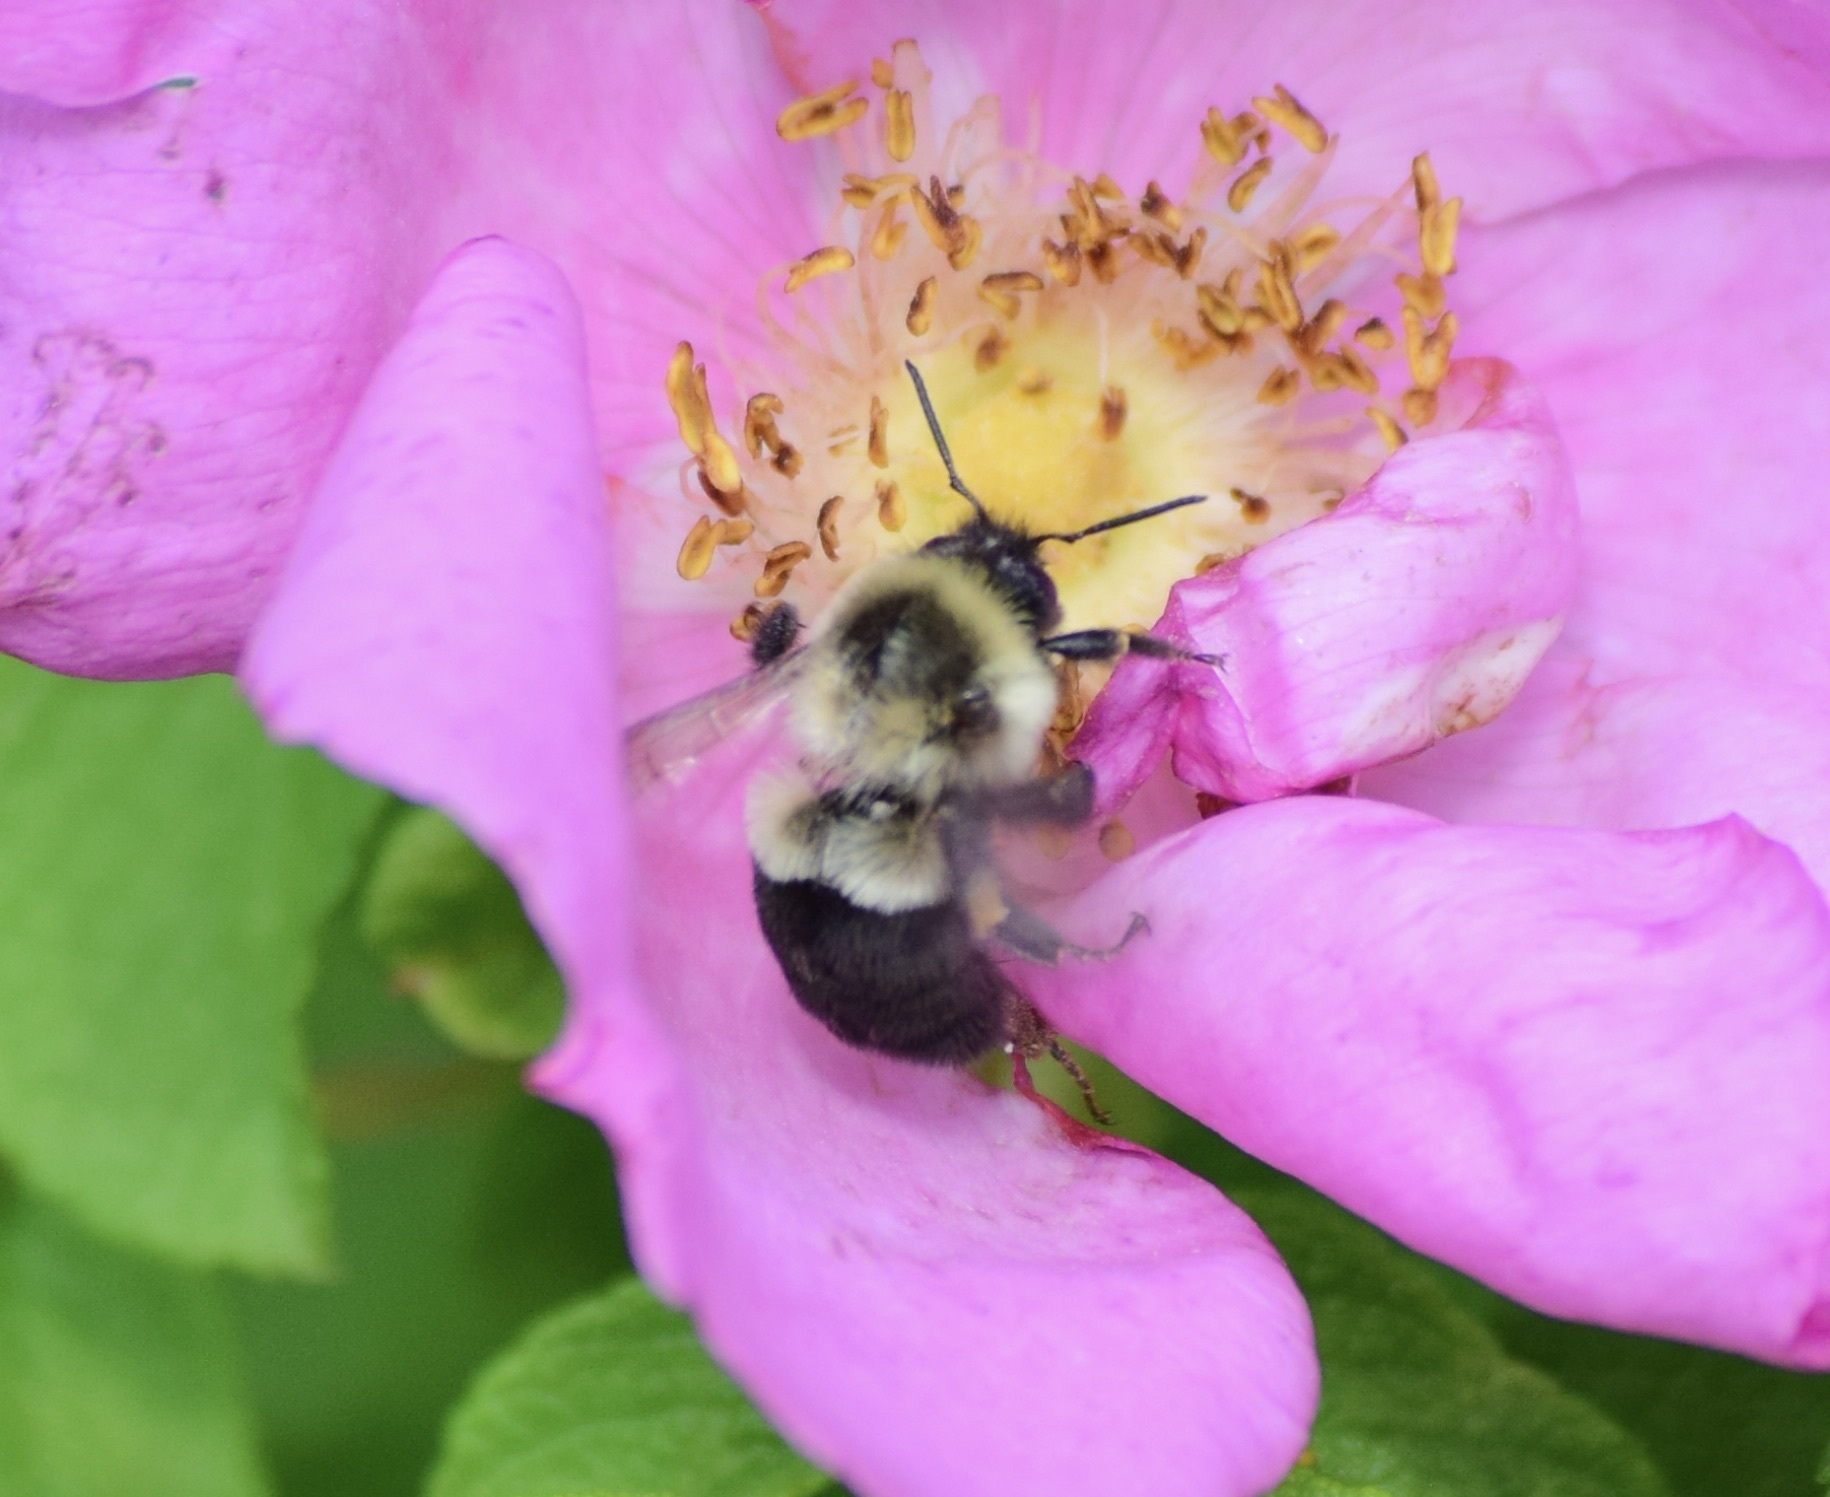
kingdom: Animalia
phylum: Arthropoda
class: Insecta
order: Hymenoptera
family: Apidae
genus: Bombus
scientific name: Bombus impatiens
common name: Common eastern bumble bee
